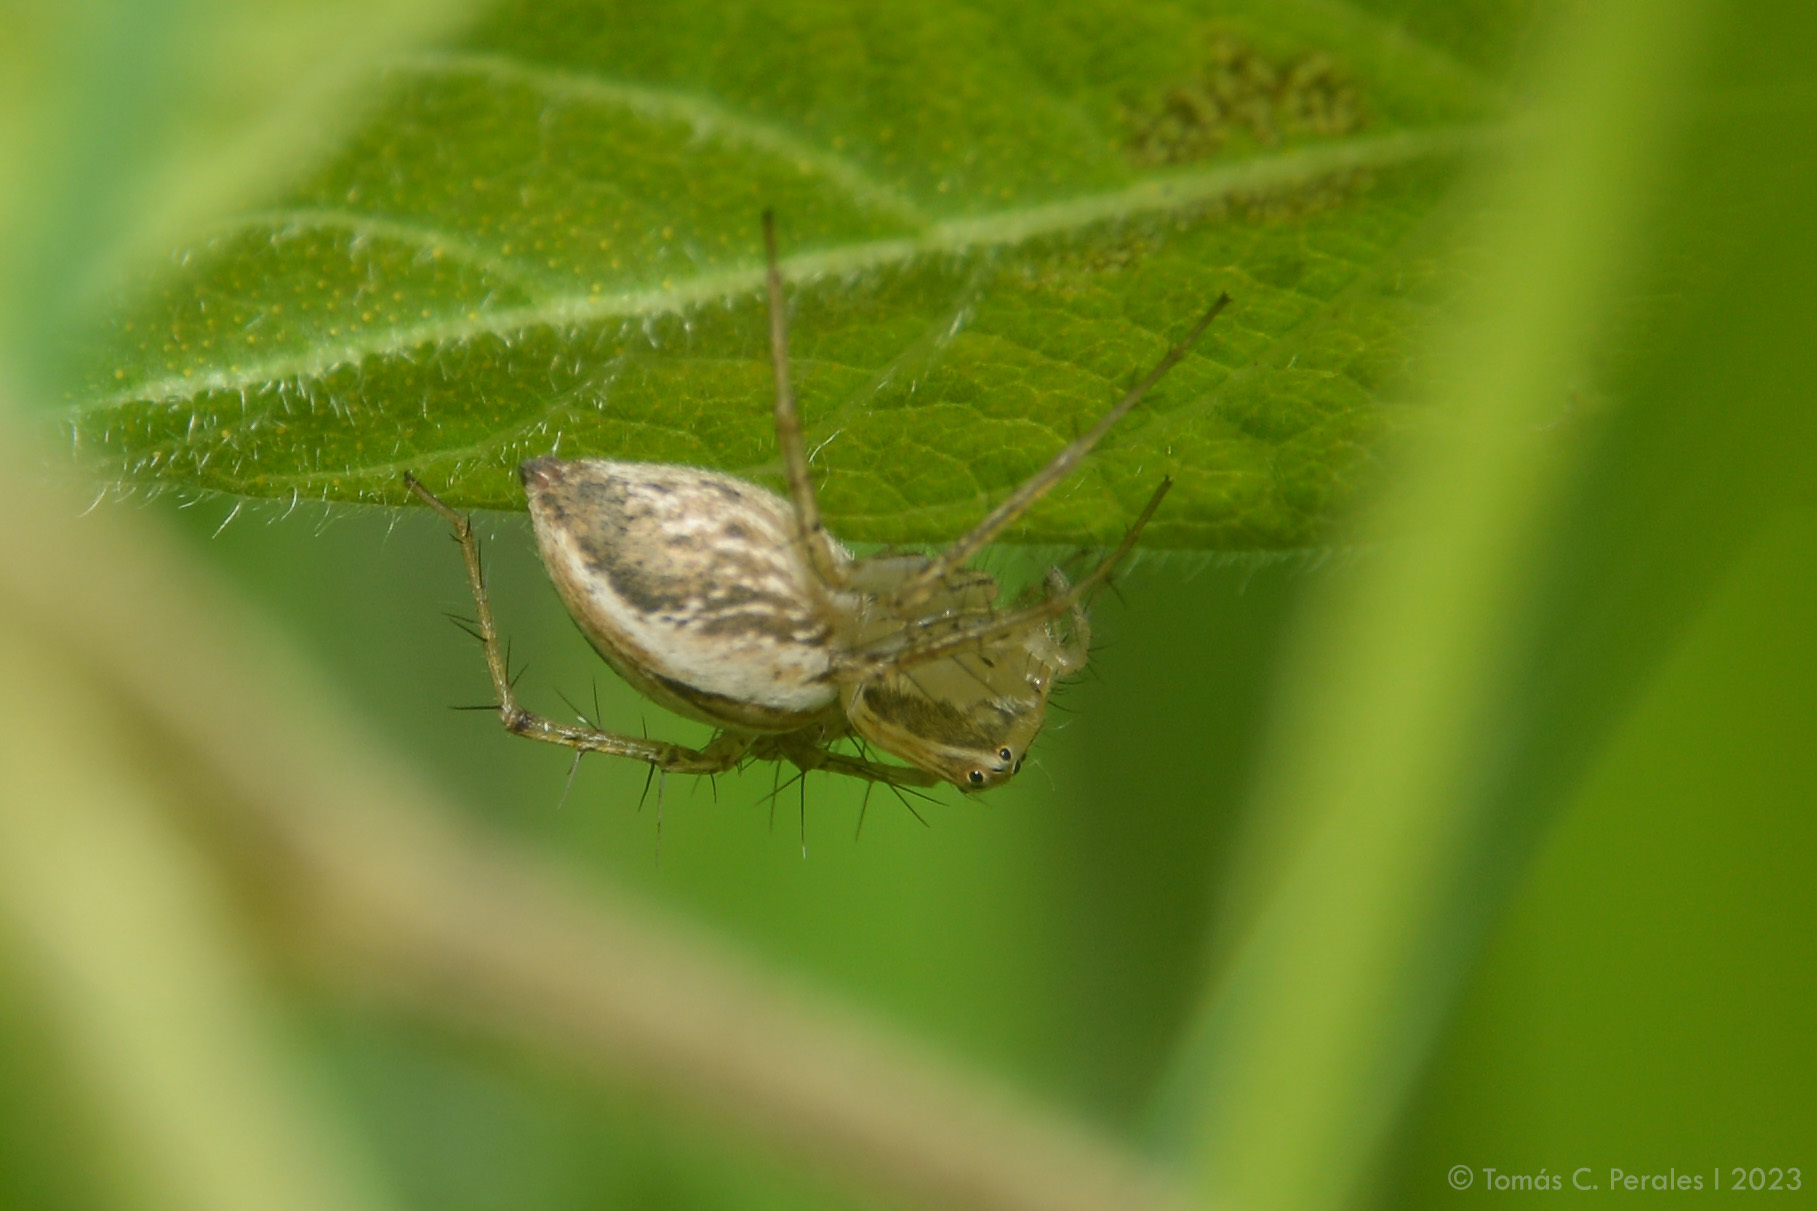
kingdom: Animalia
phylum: Arthropoda
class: Arachnida
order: Araneae
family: Oxyopidae
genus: Oxyopes
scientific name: Oxyopes salticus
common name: Lynx spiders
